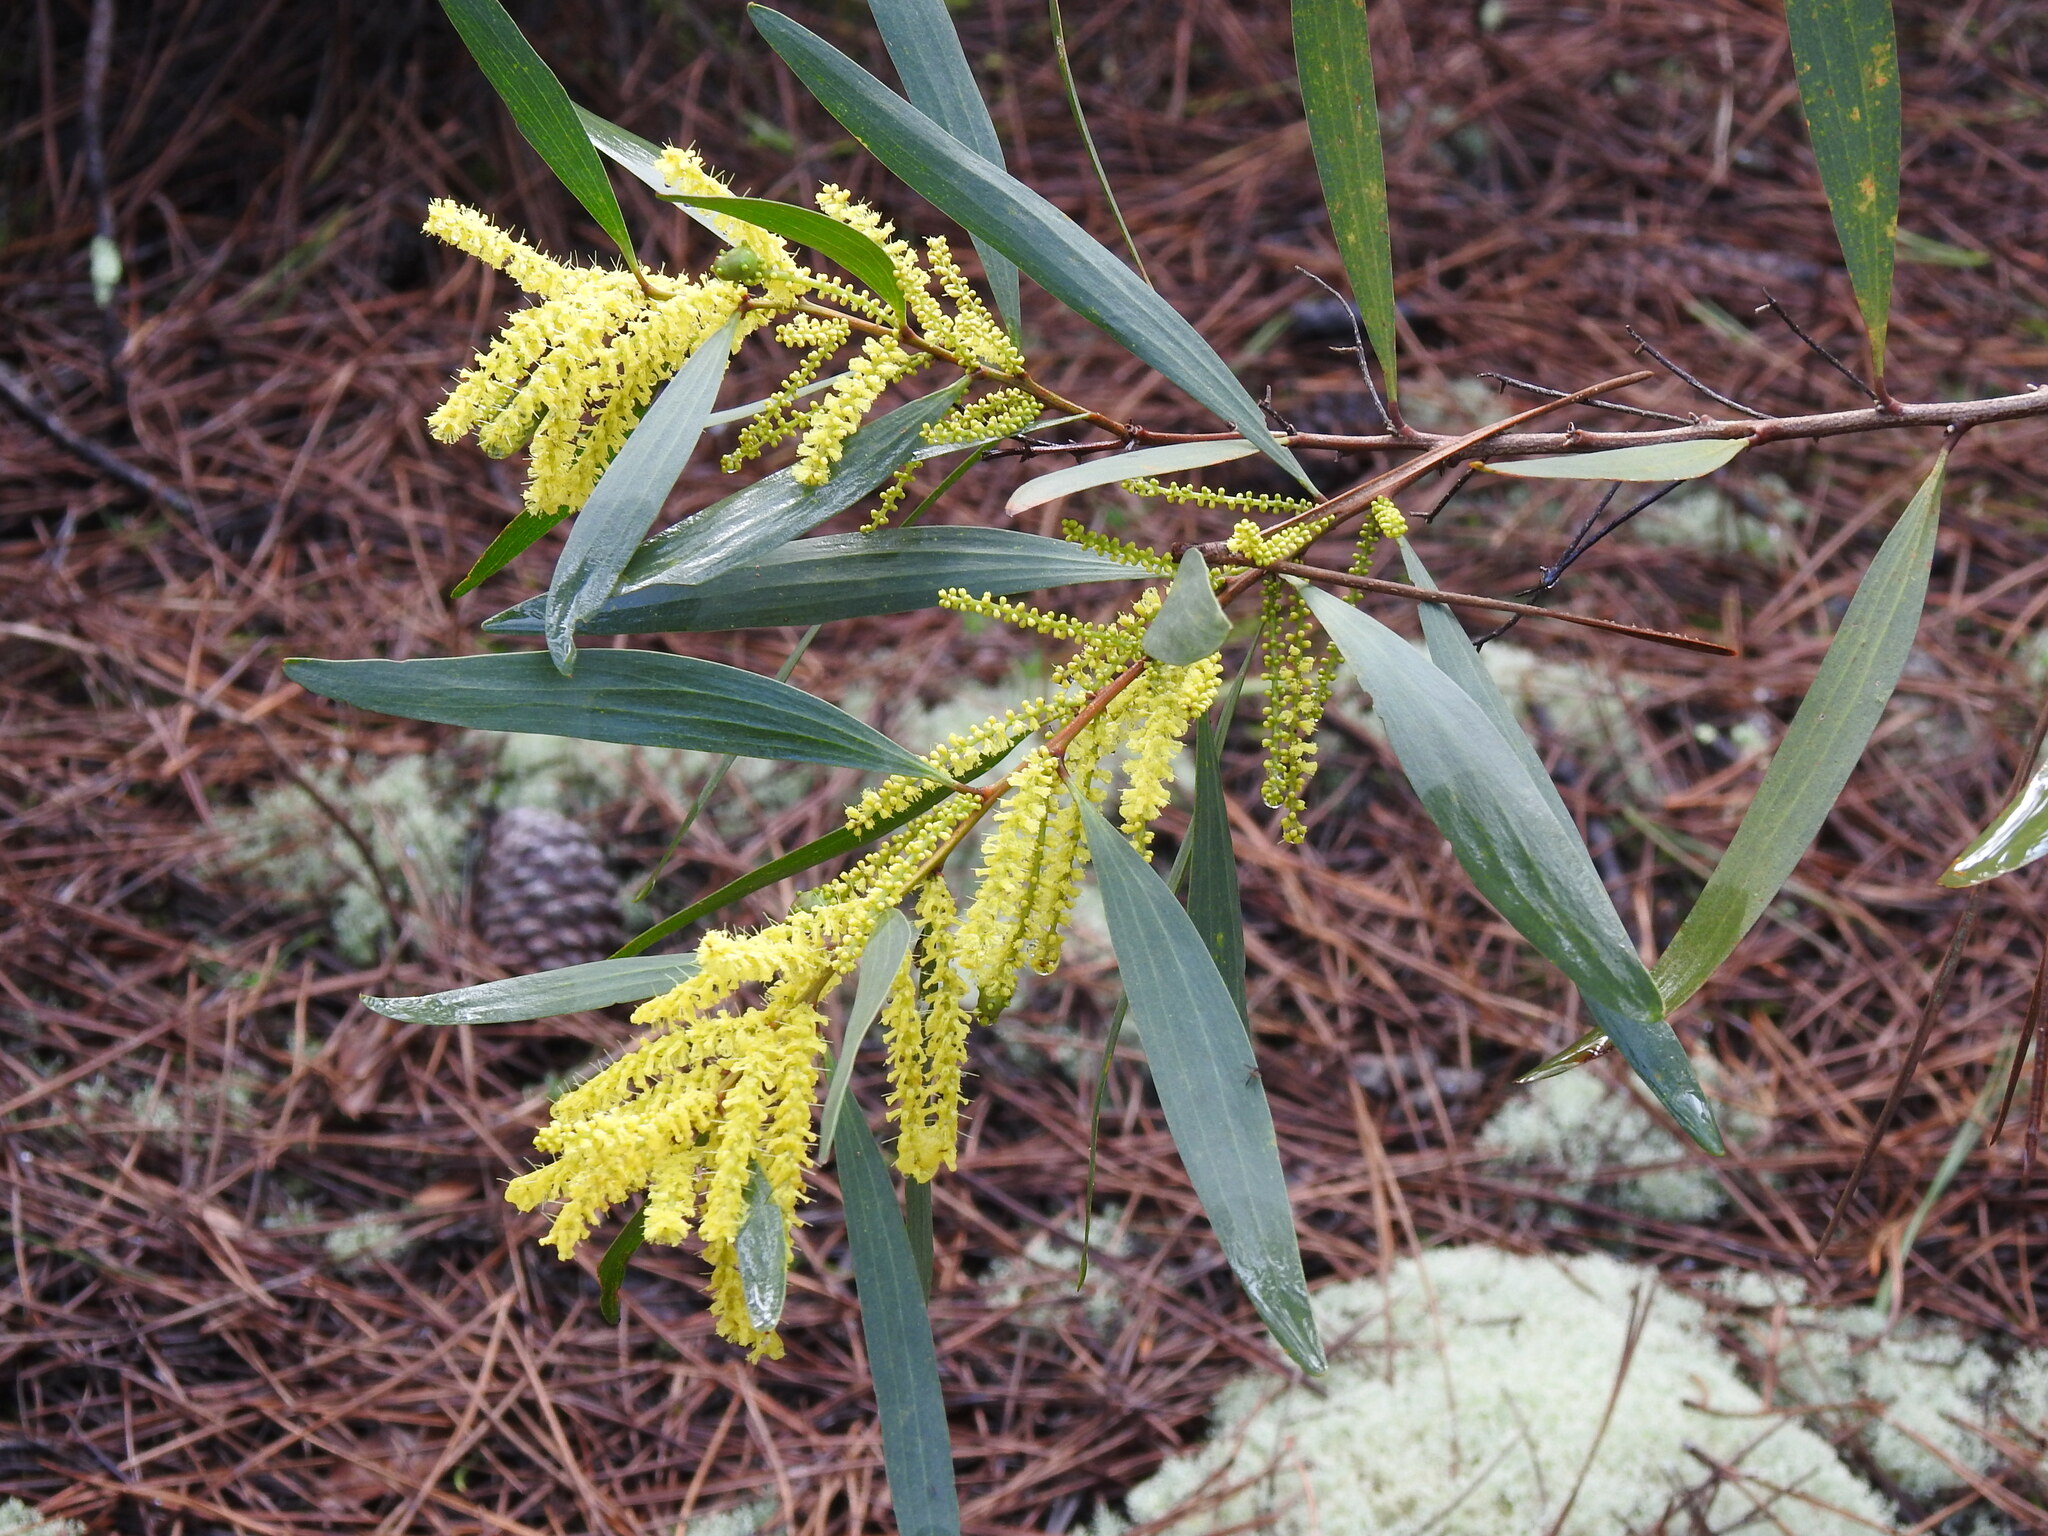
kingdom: Plantae
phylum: Tracheophyta
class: Magnoliopsida
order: Fabales
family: Fabaceae
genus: Acacia
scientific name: Acacia longifolia
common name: Sydney golden wattle
